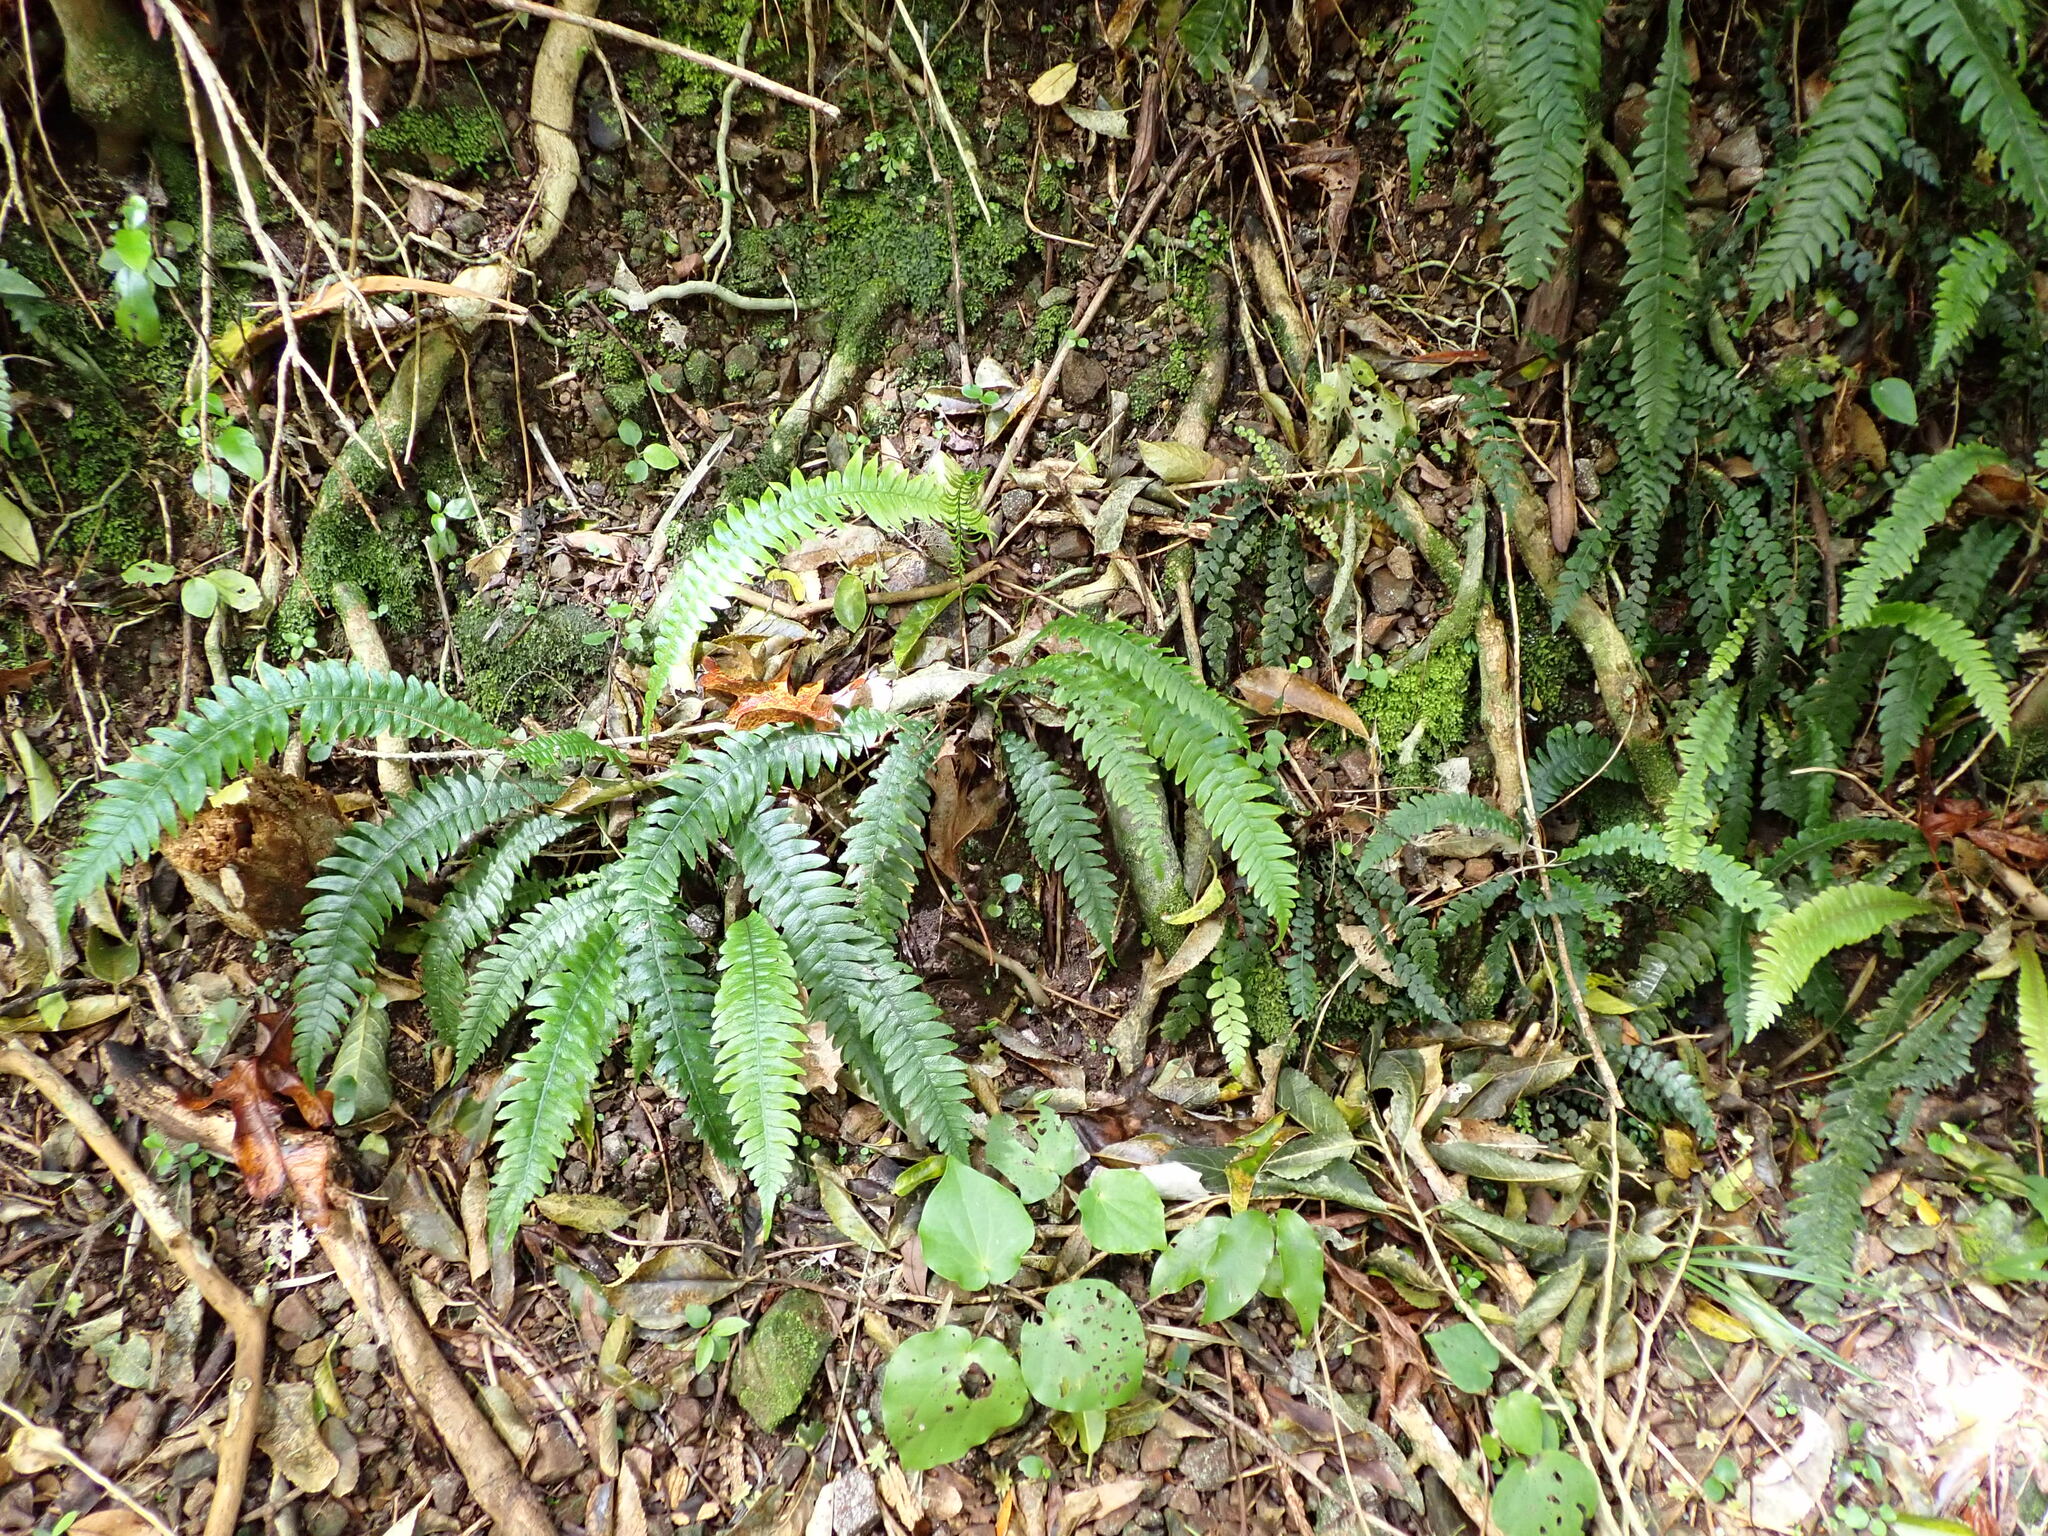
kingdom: Plantae
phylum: Tracheophyta
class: Polypodiopsida
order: Polypodiales
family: Blechnaceae
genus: Austroblechnum
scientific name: Austroblechnum membranaceum
